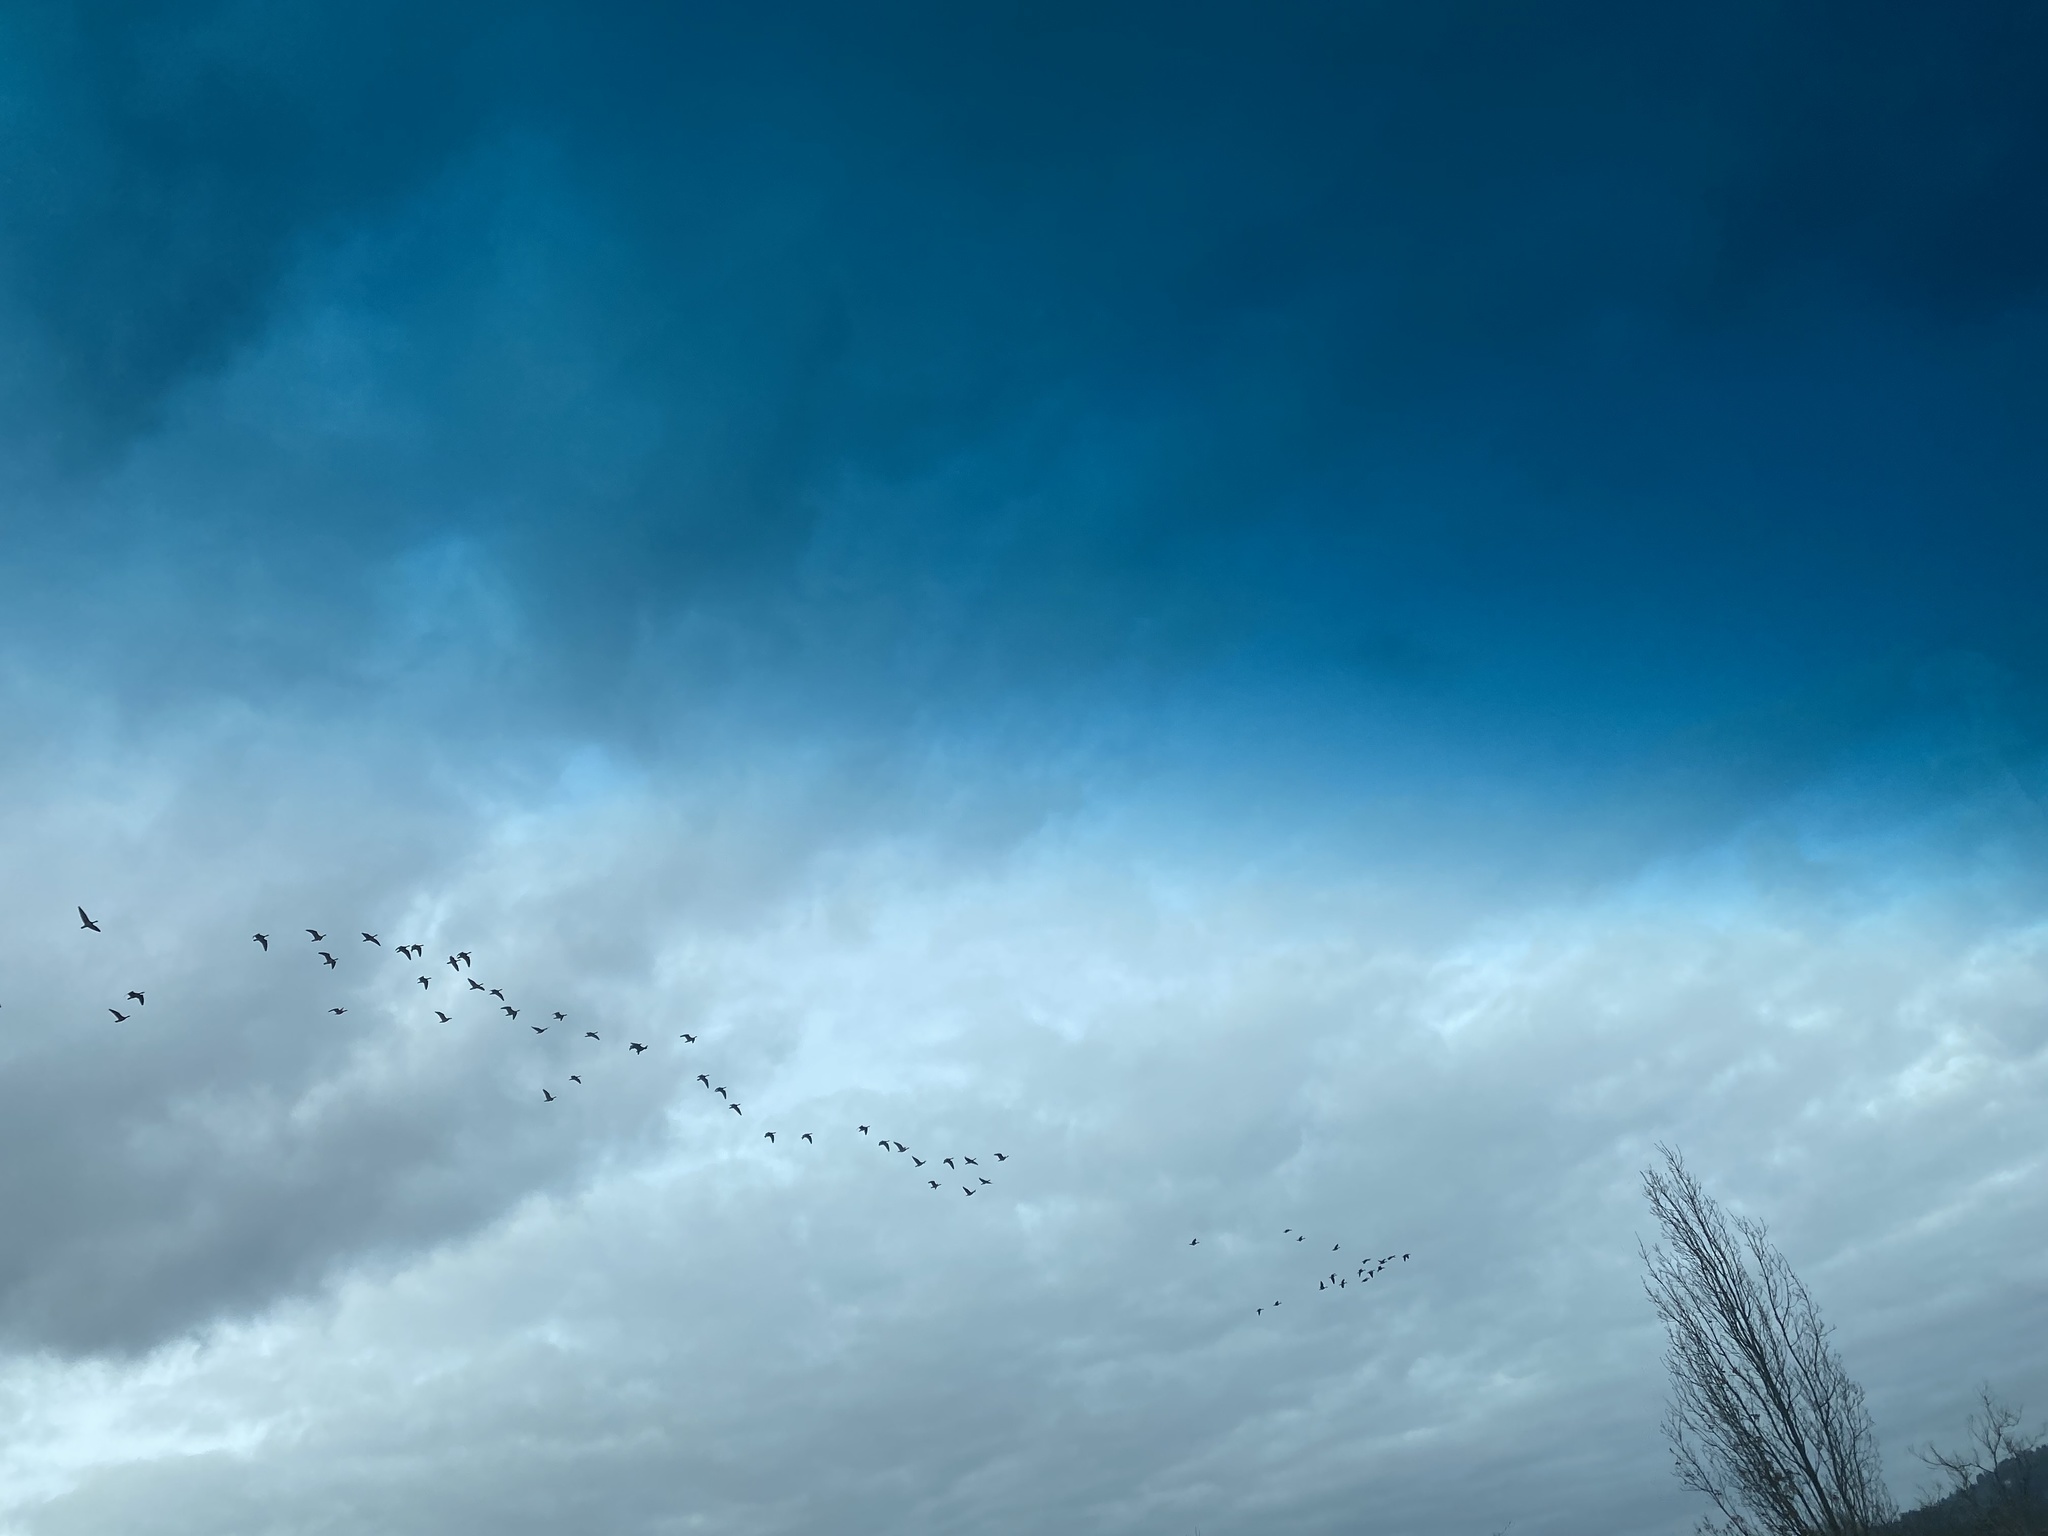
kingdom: Animalia
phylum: Chordata
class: Aves
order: Anseriformes
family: Anatidae
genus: Branta
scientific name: Branta canadensis
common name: Canada goose
